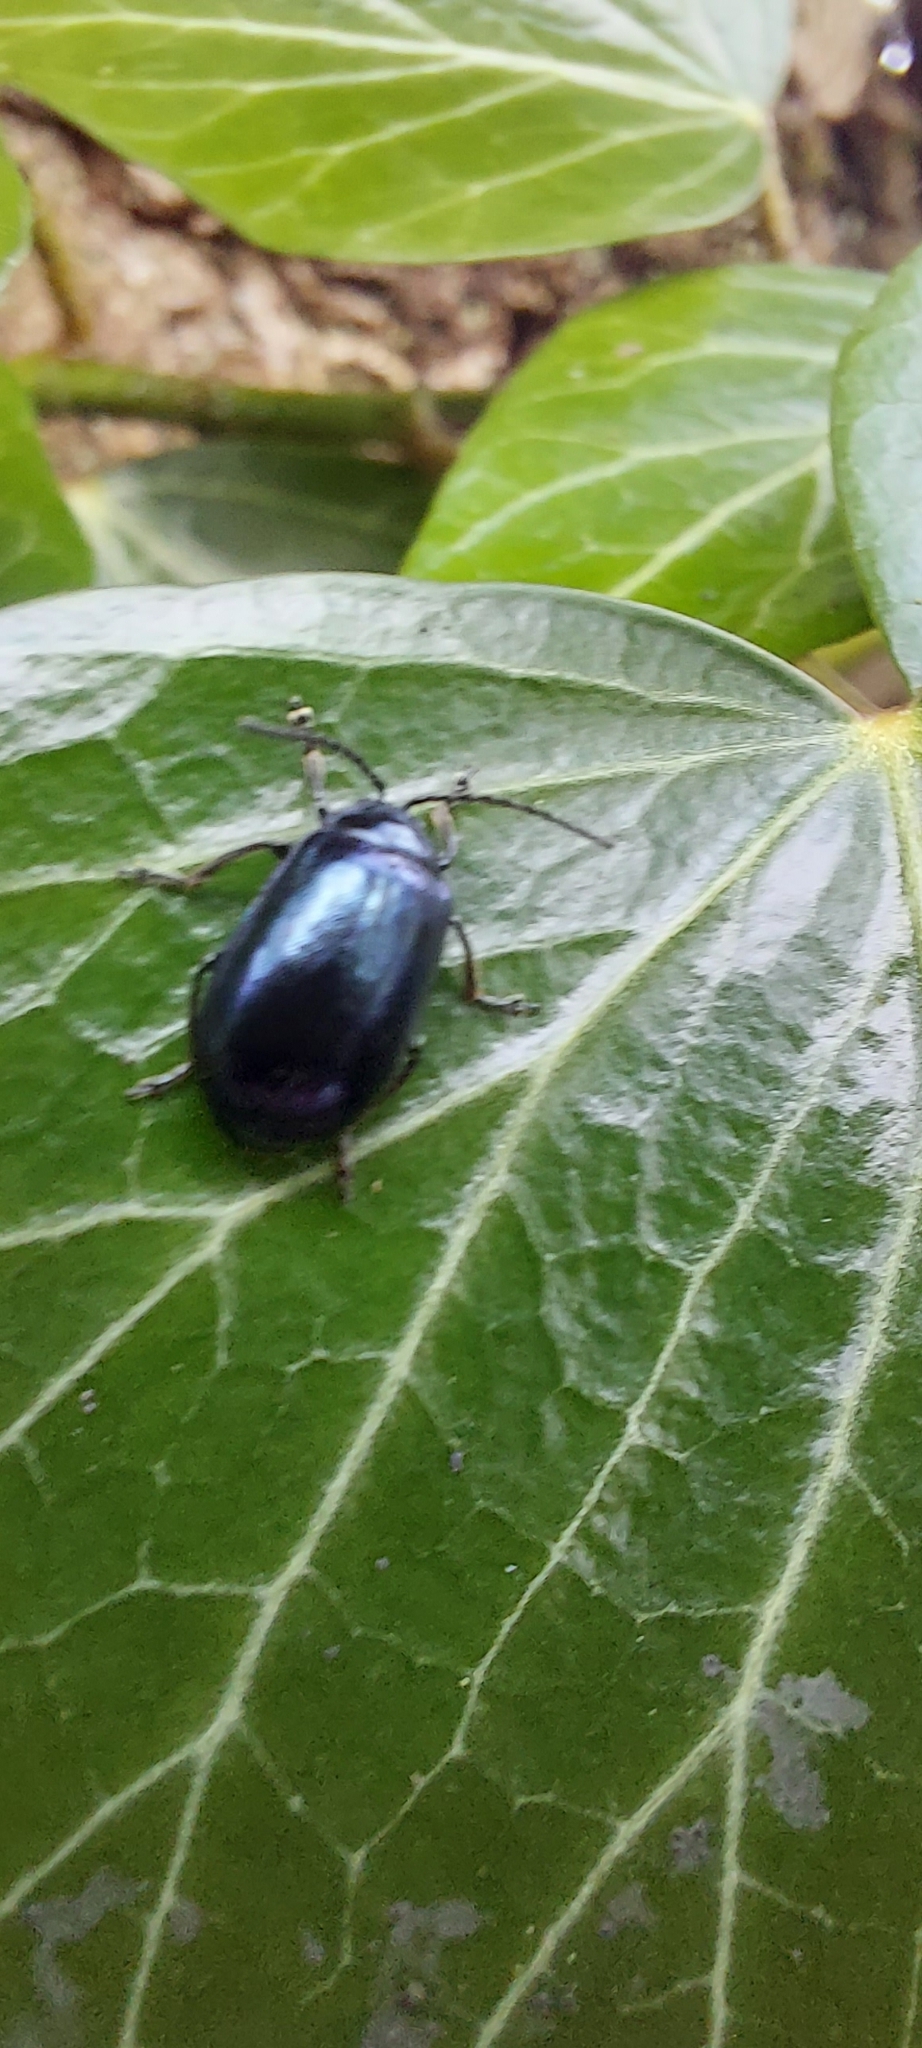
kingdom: Animalia
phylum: Arthropoda
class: Insecta
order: Coleoptera
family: Chrysomelidae
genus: Agelastica
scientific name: Agelastica alni
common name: Alder leaf beetle
